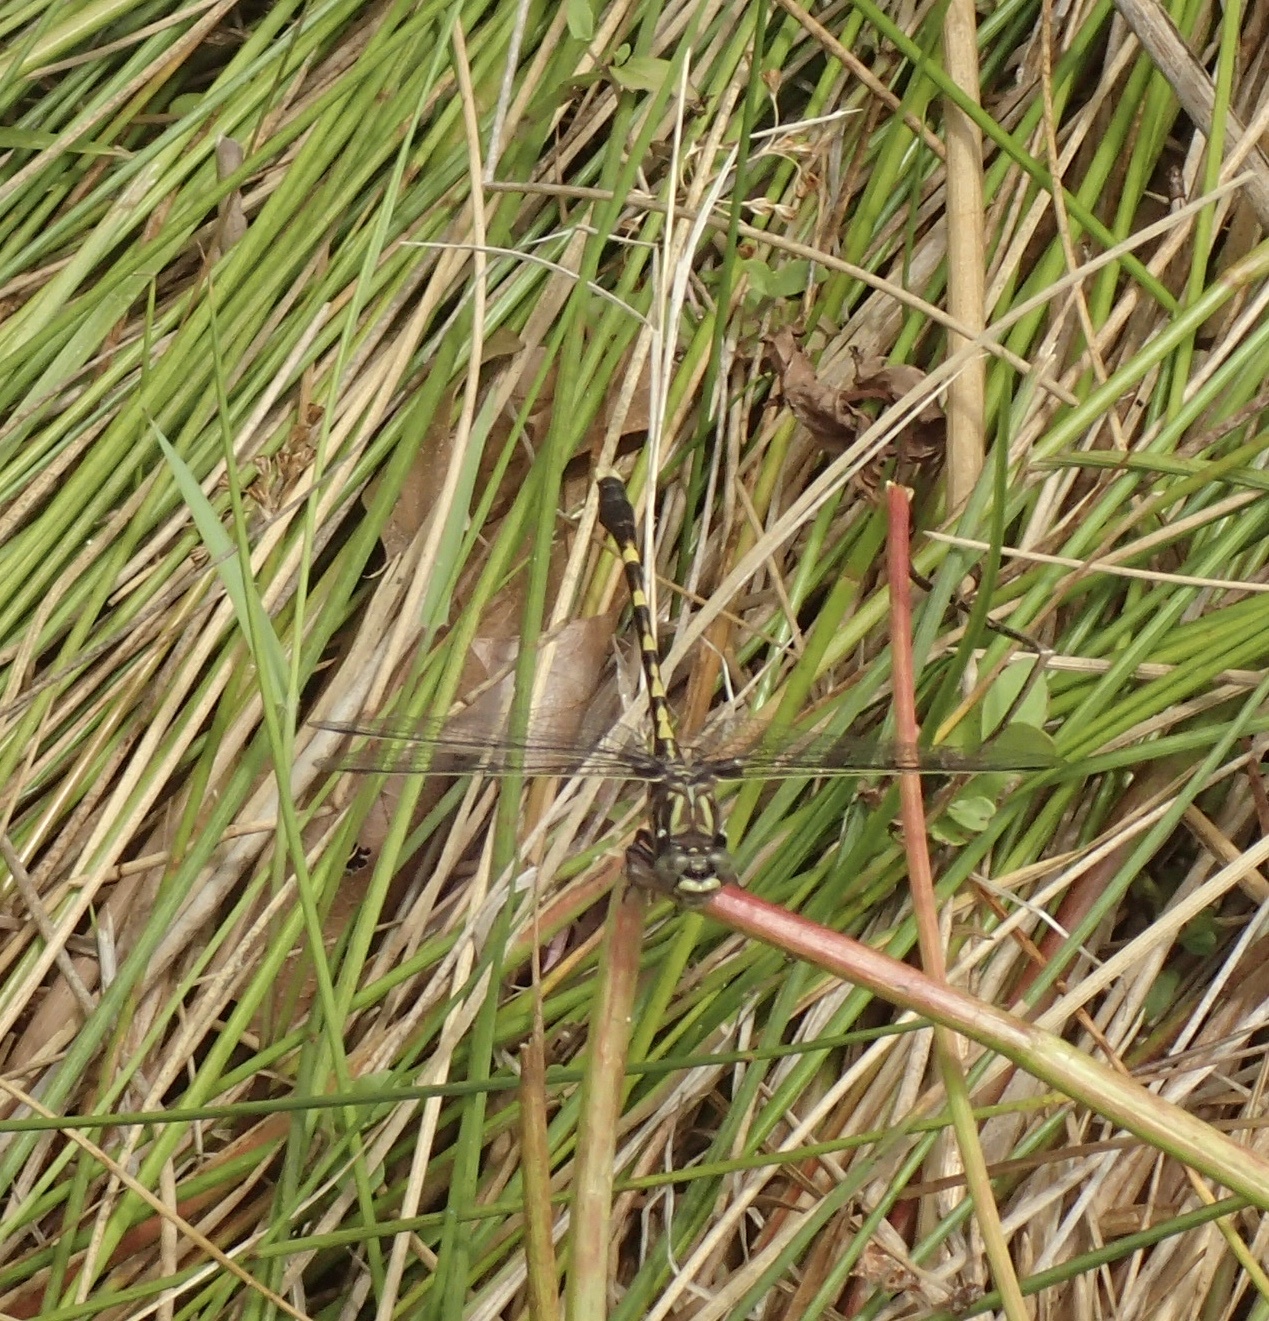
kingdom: Animalia
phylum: Arthropoda
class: Insecta
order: Odonata
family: Gomphidae
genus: Progomphus
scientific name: Progomphus obscurus
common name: Common sanddragon
